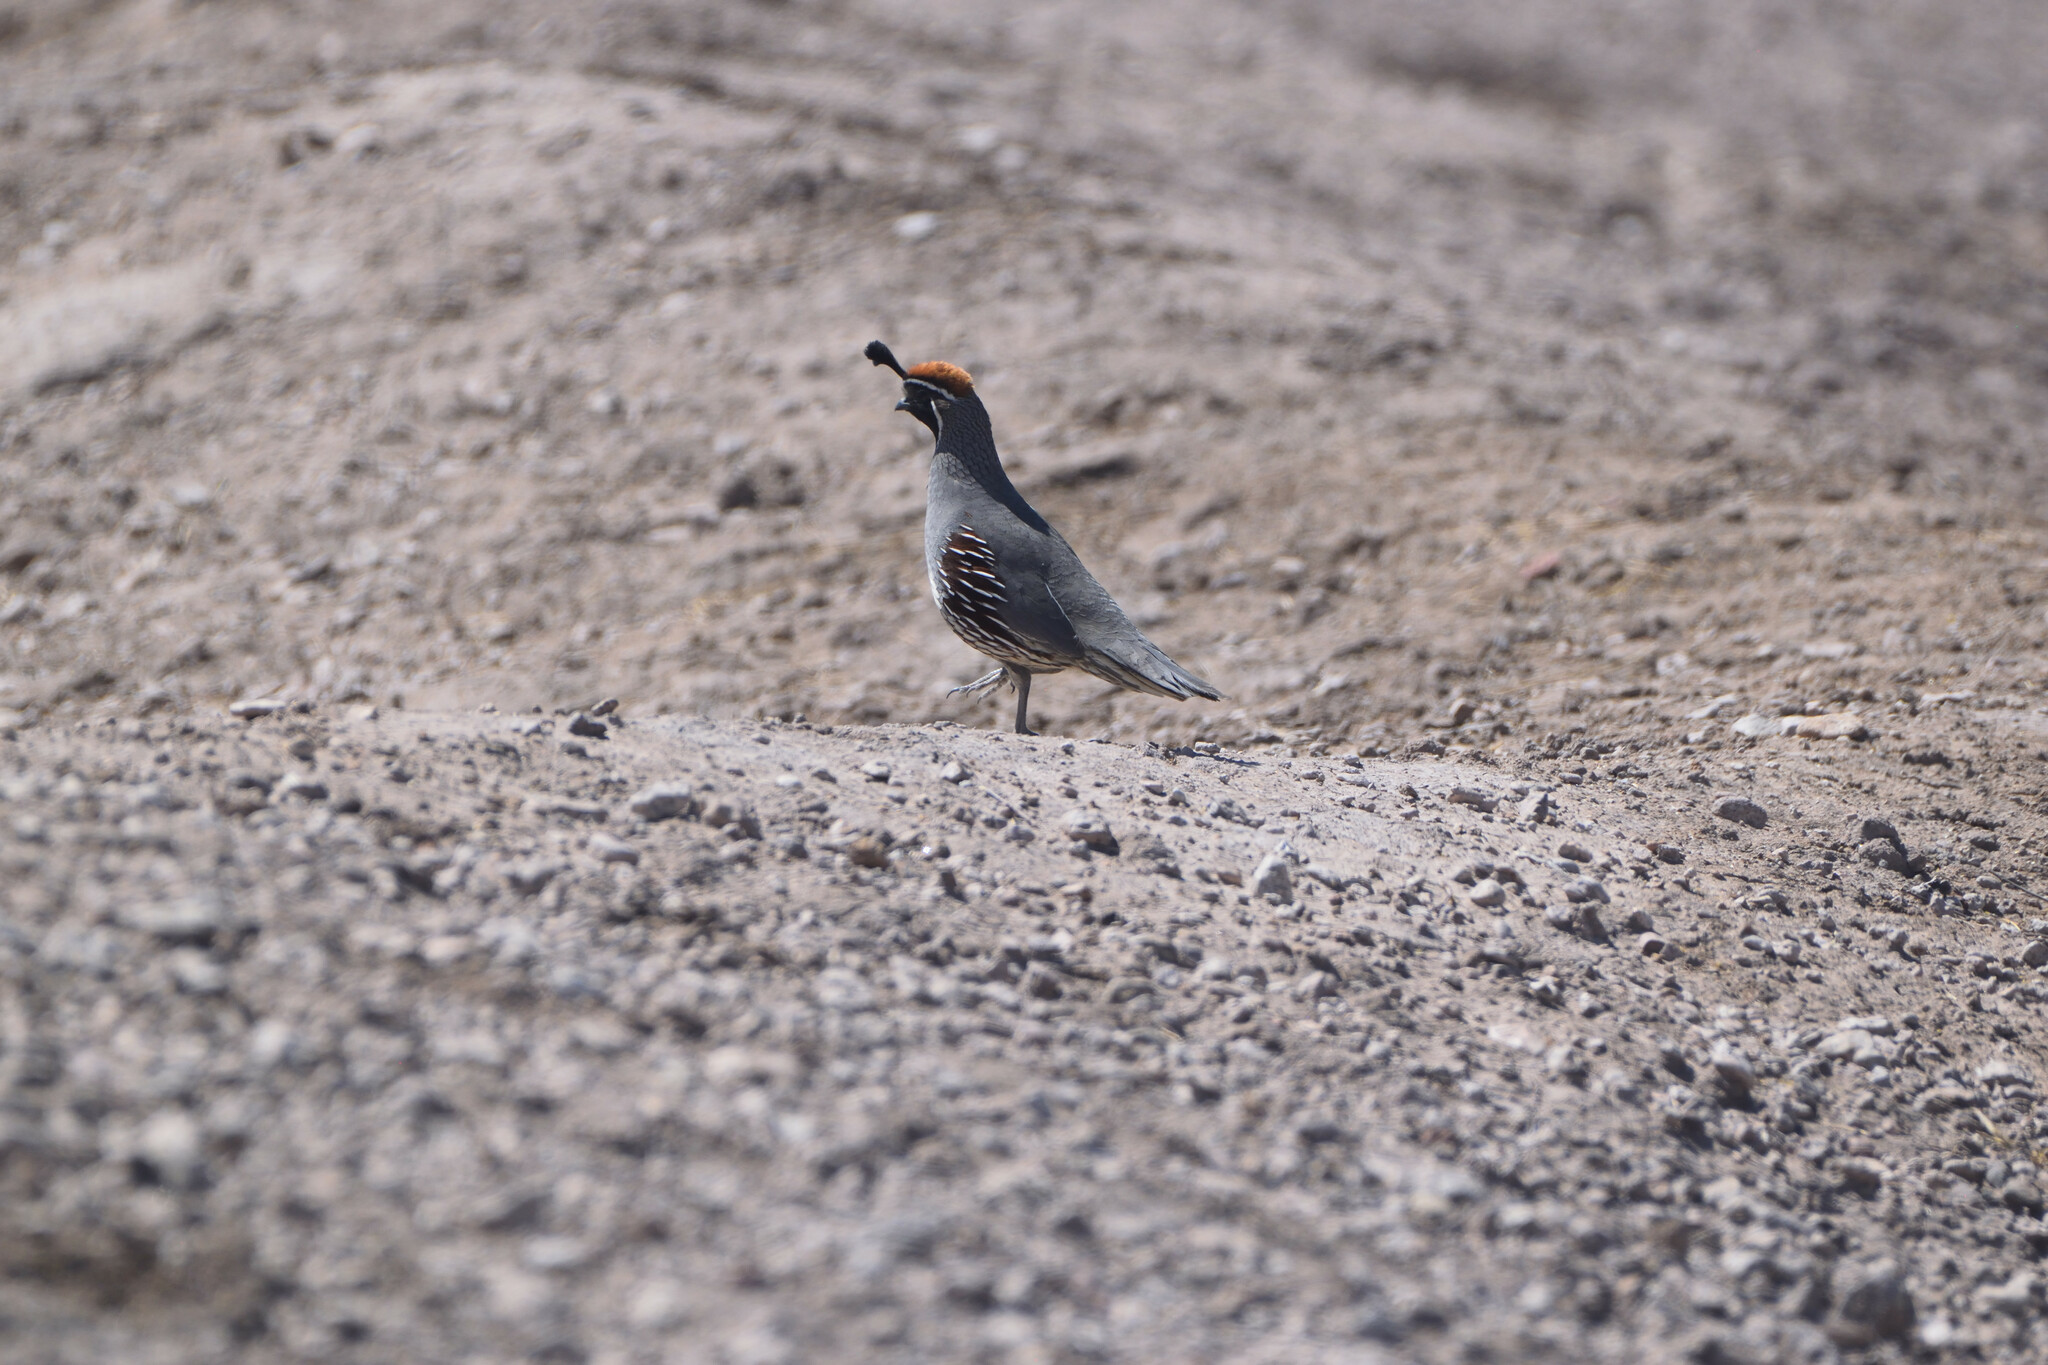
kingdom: Animalia
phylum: Chordata
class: Aves
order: Galliformes
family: Odontophoridae
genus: Callipepla
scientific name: Callipepla gambelii
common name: Gambel's quail
